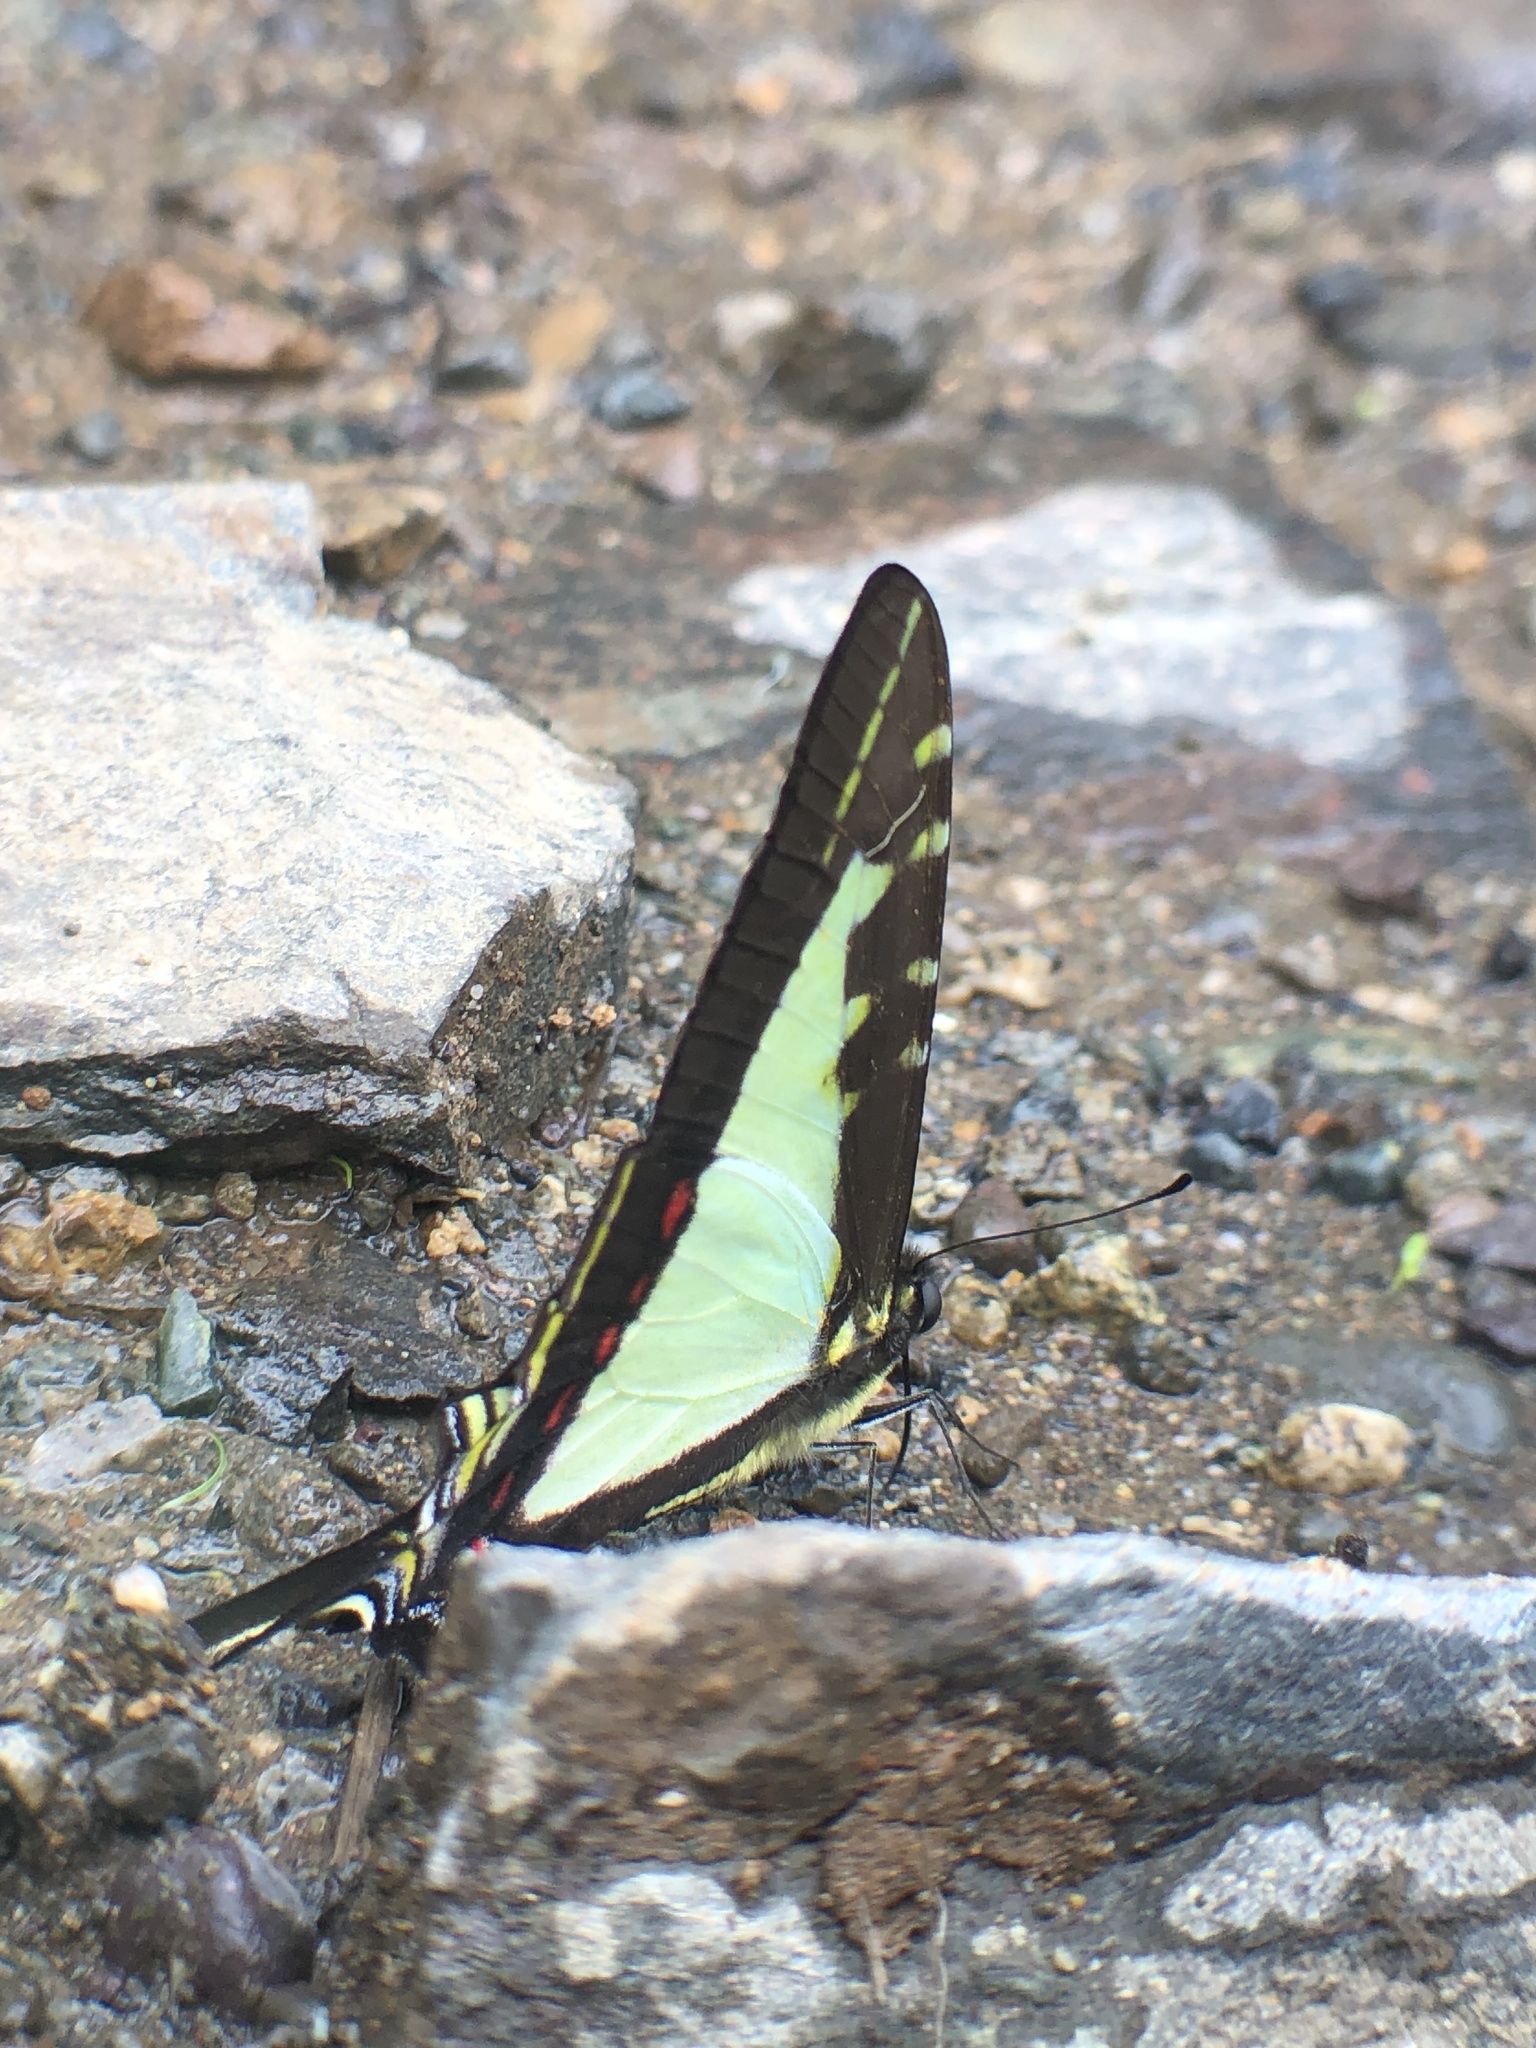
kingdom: Animalia
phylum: Arthropoda
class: Insecta
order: Lepidoptera
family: Papilionidae
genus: Eurytides
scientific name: Eurytides
